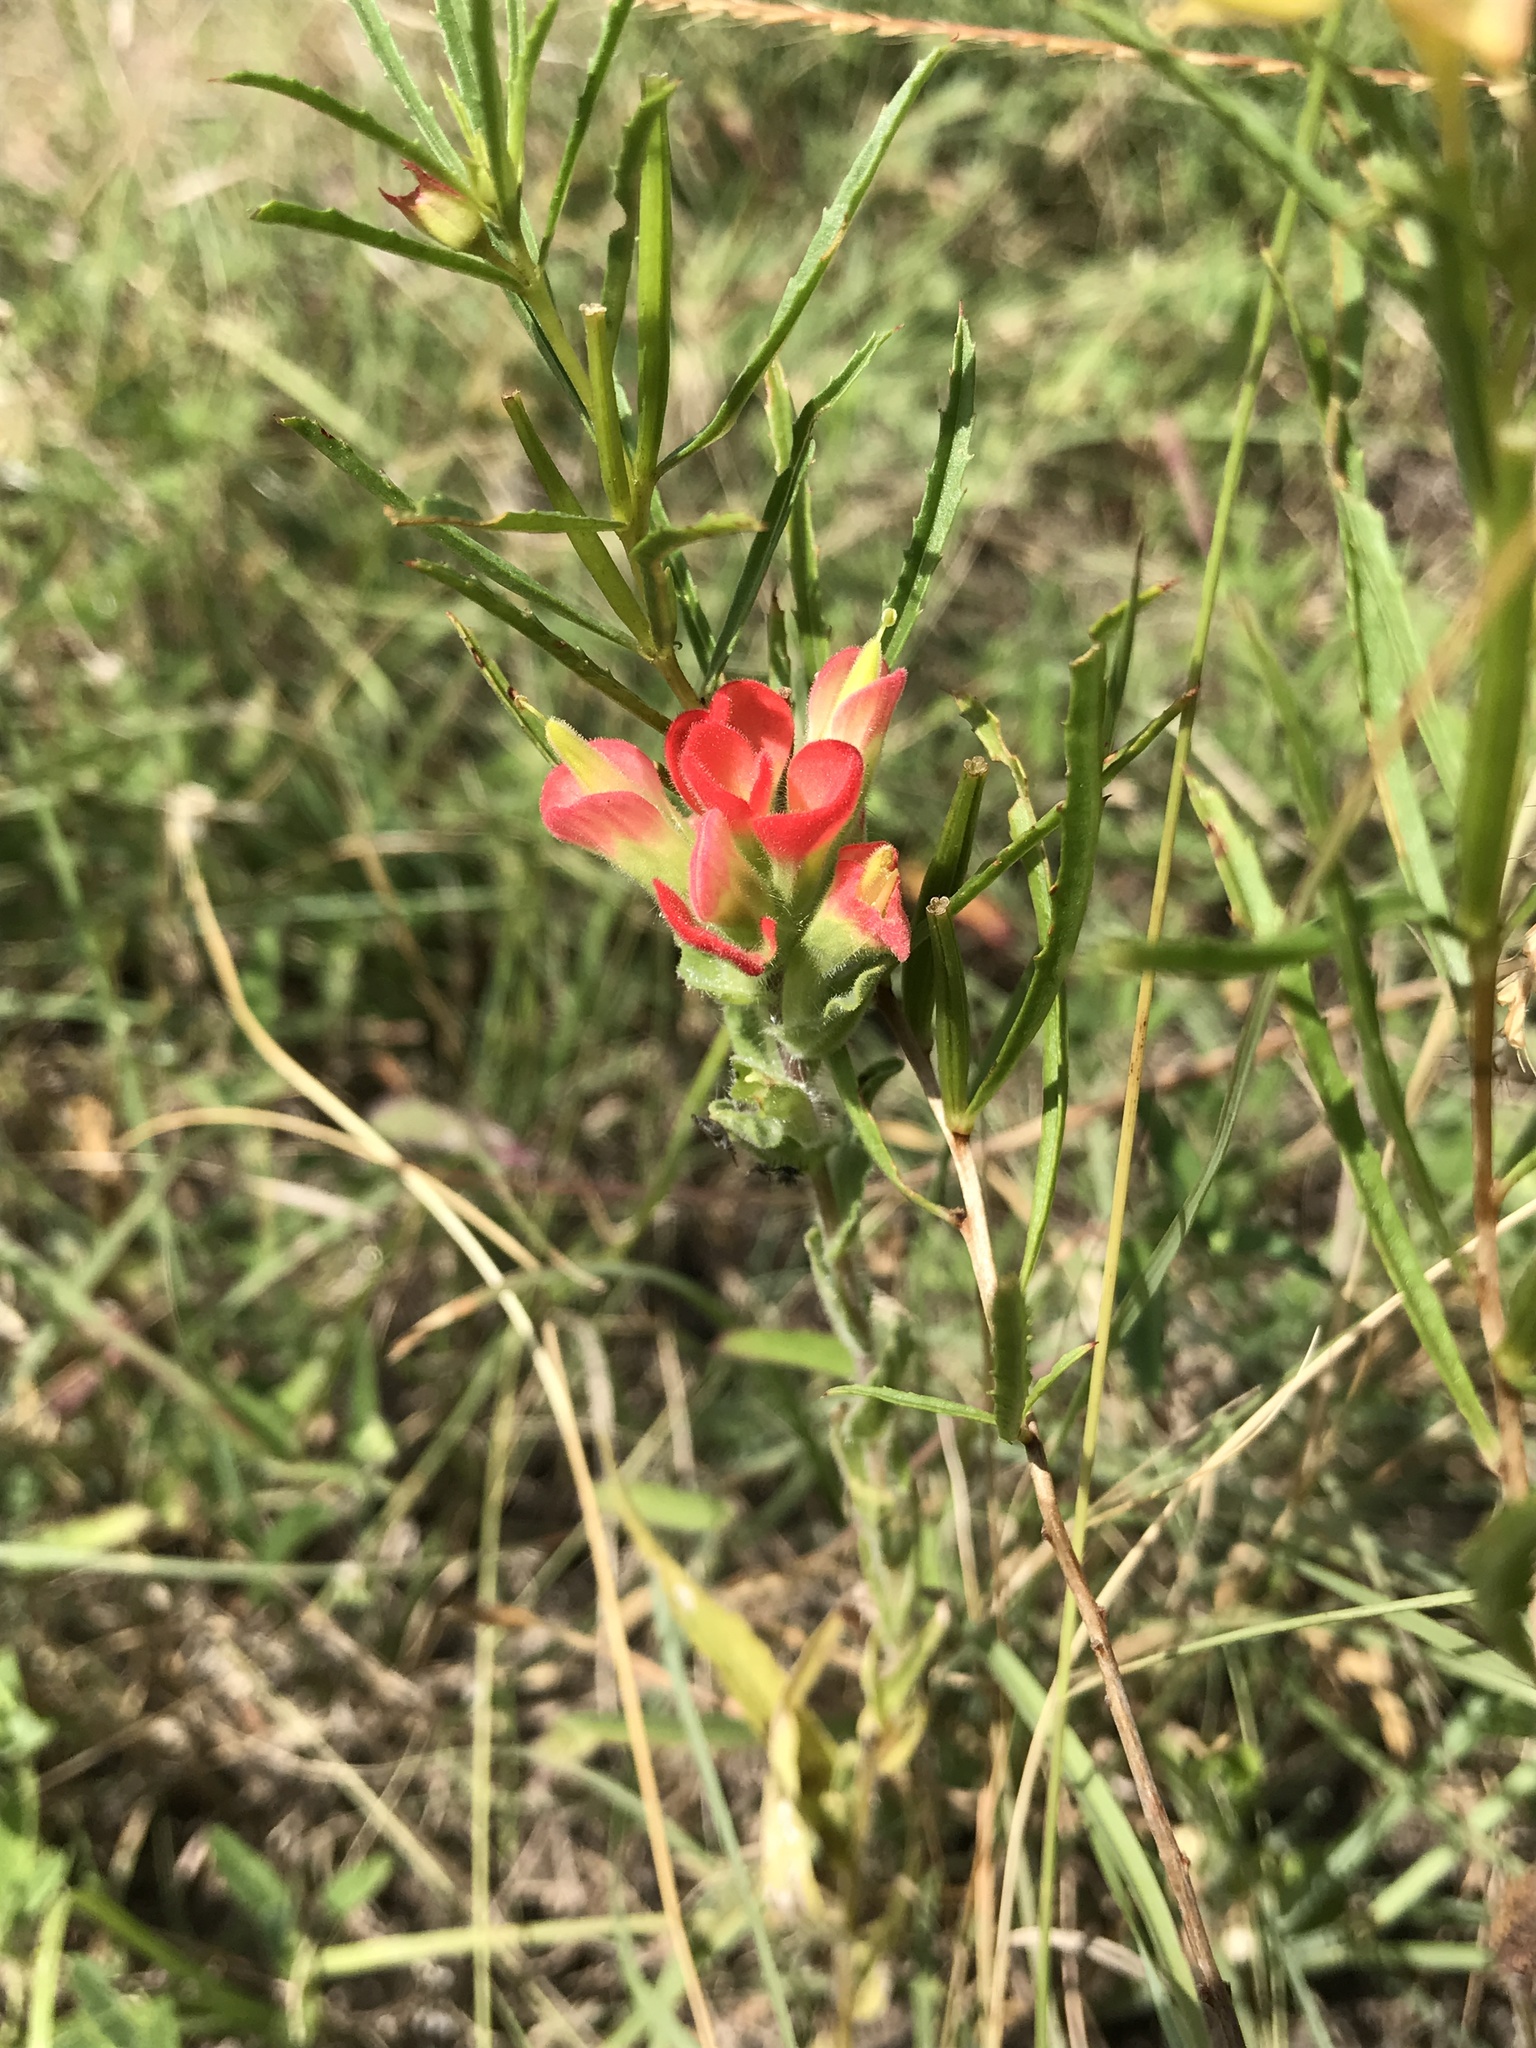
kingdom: Plantae
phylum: Tracheophyta
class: Magnoliopsida
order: Lamiales
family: Orobanchaceae
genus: Castilleja
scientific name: Castilleja indivisa
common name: Texas paintbrush
